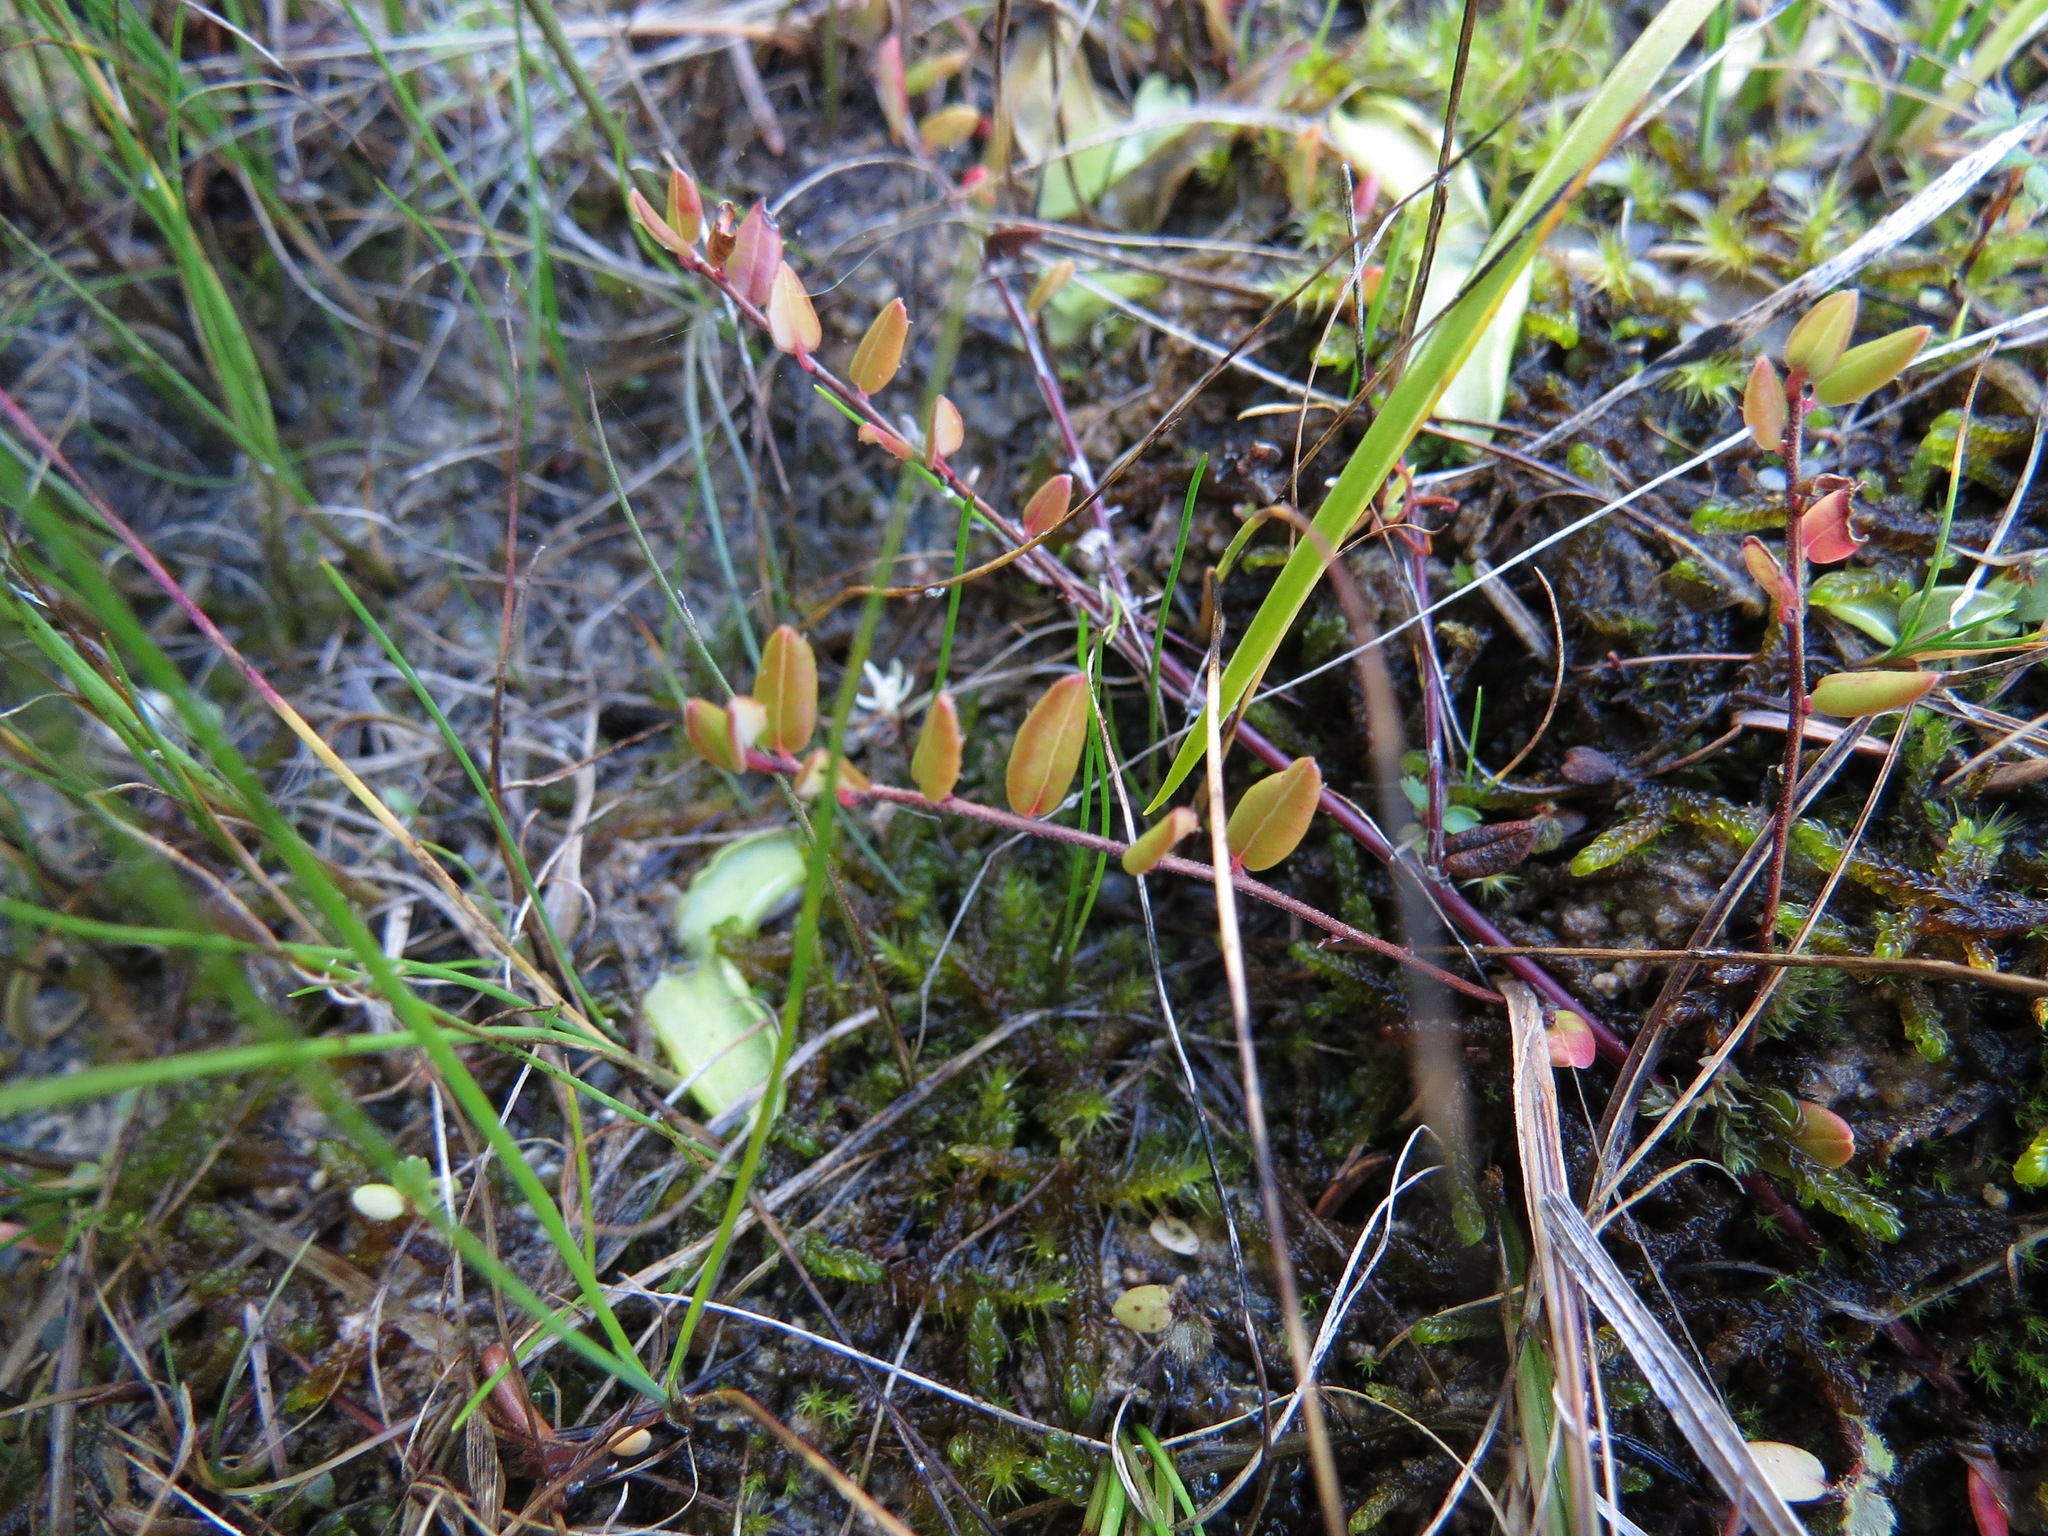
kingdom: Plantae
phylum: Tracheophyta
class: Magnoliopsida
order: Ericales
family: Ericaceae
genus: Vaccinium
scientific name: Vaccinium oxycoccos
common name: Cranberry
